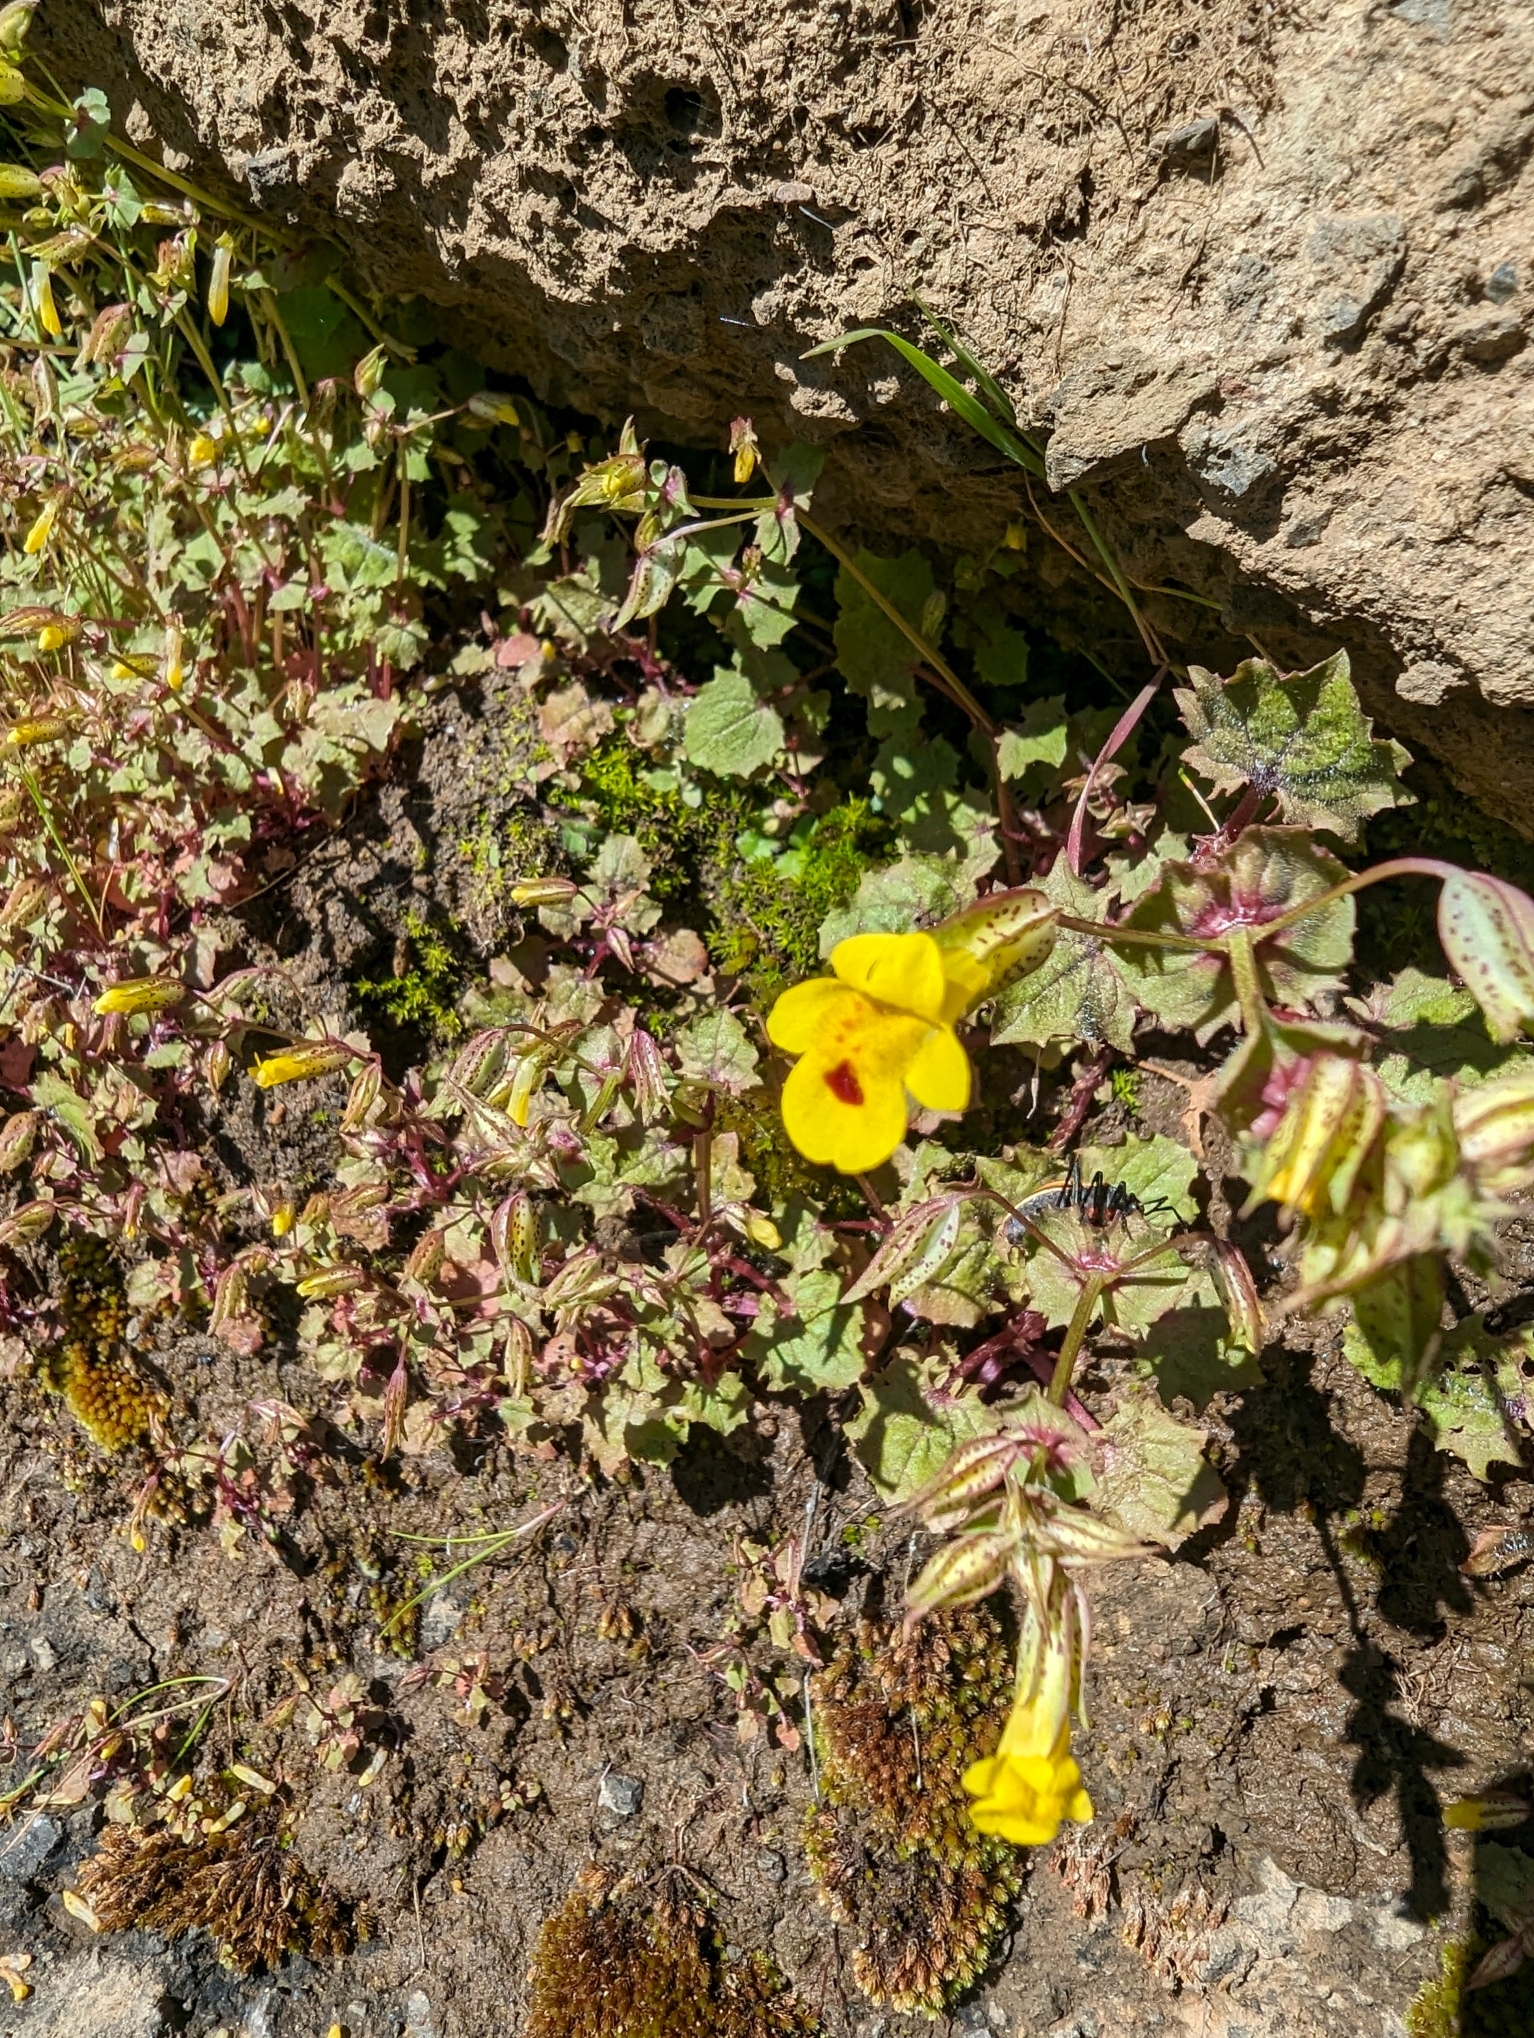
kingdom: Plantae
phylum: Tracheophyta
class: Magnoliopsida
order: Lamiales
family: Phrymaceae
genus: Erythranthe
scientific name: Erythranthe nasuta
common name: Sooke monkeyflower
